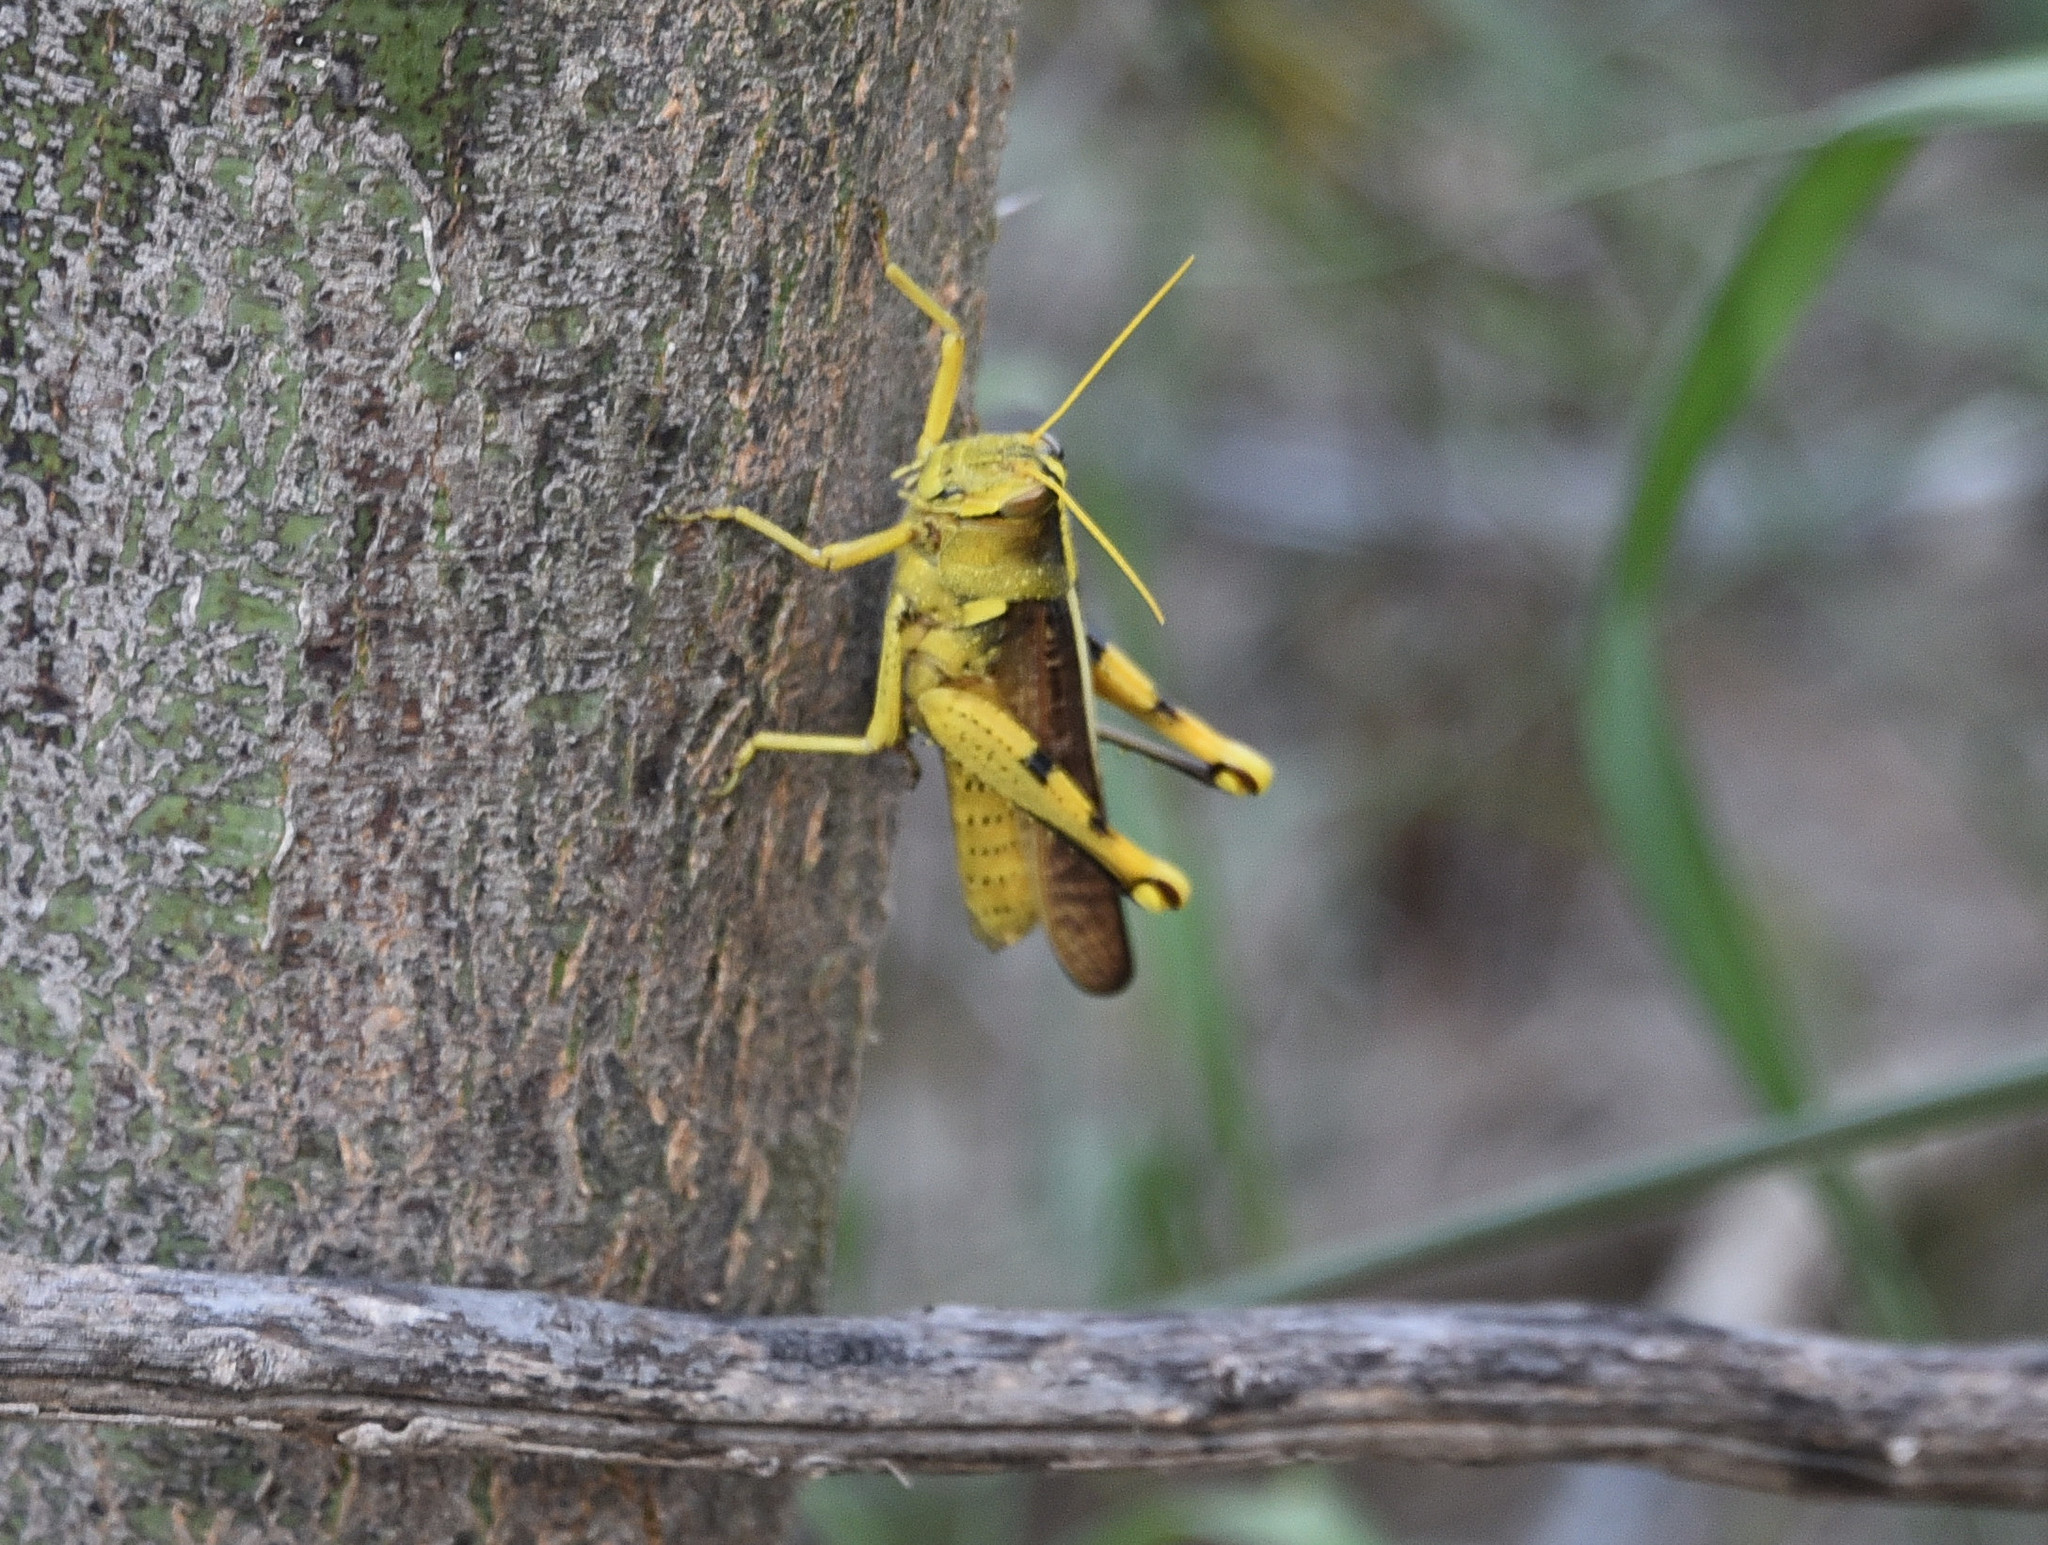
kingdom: Animalia
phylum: Arthropoda
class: Insecta
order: Orthoptera
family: Acrididae
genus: Schistocerca
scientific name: Schistocerca obscura
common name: Obscure bird grasshopper
